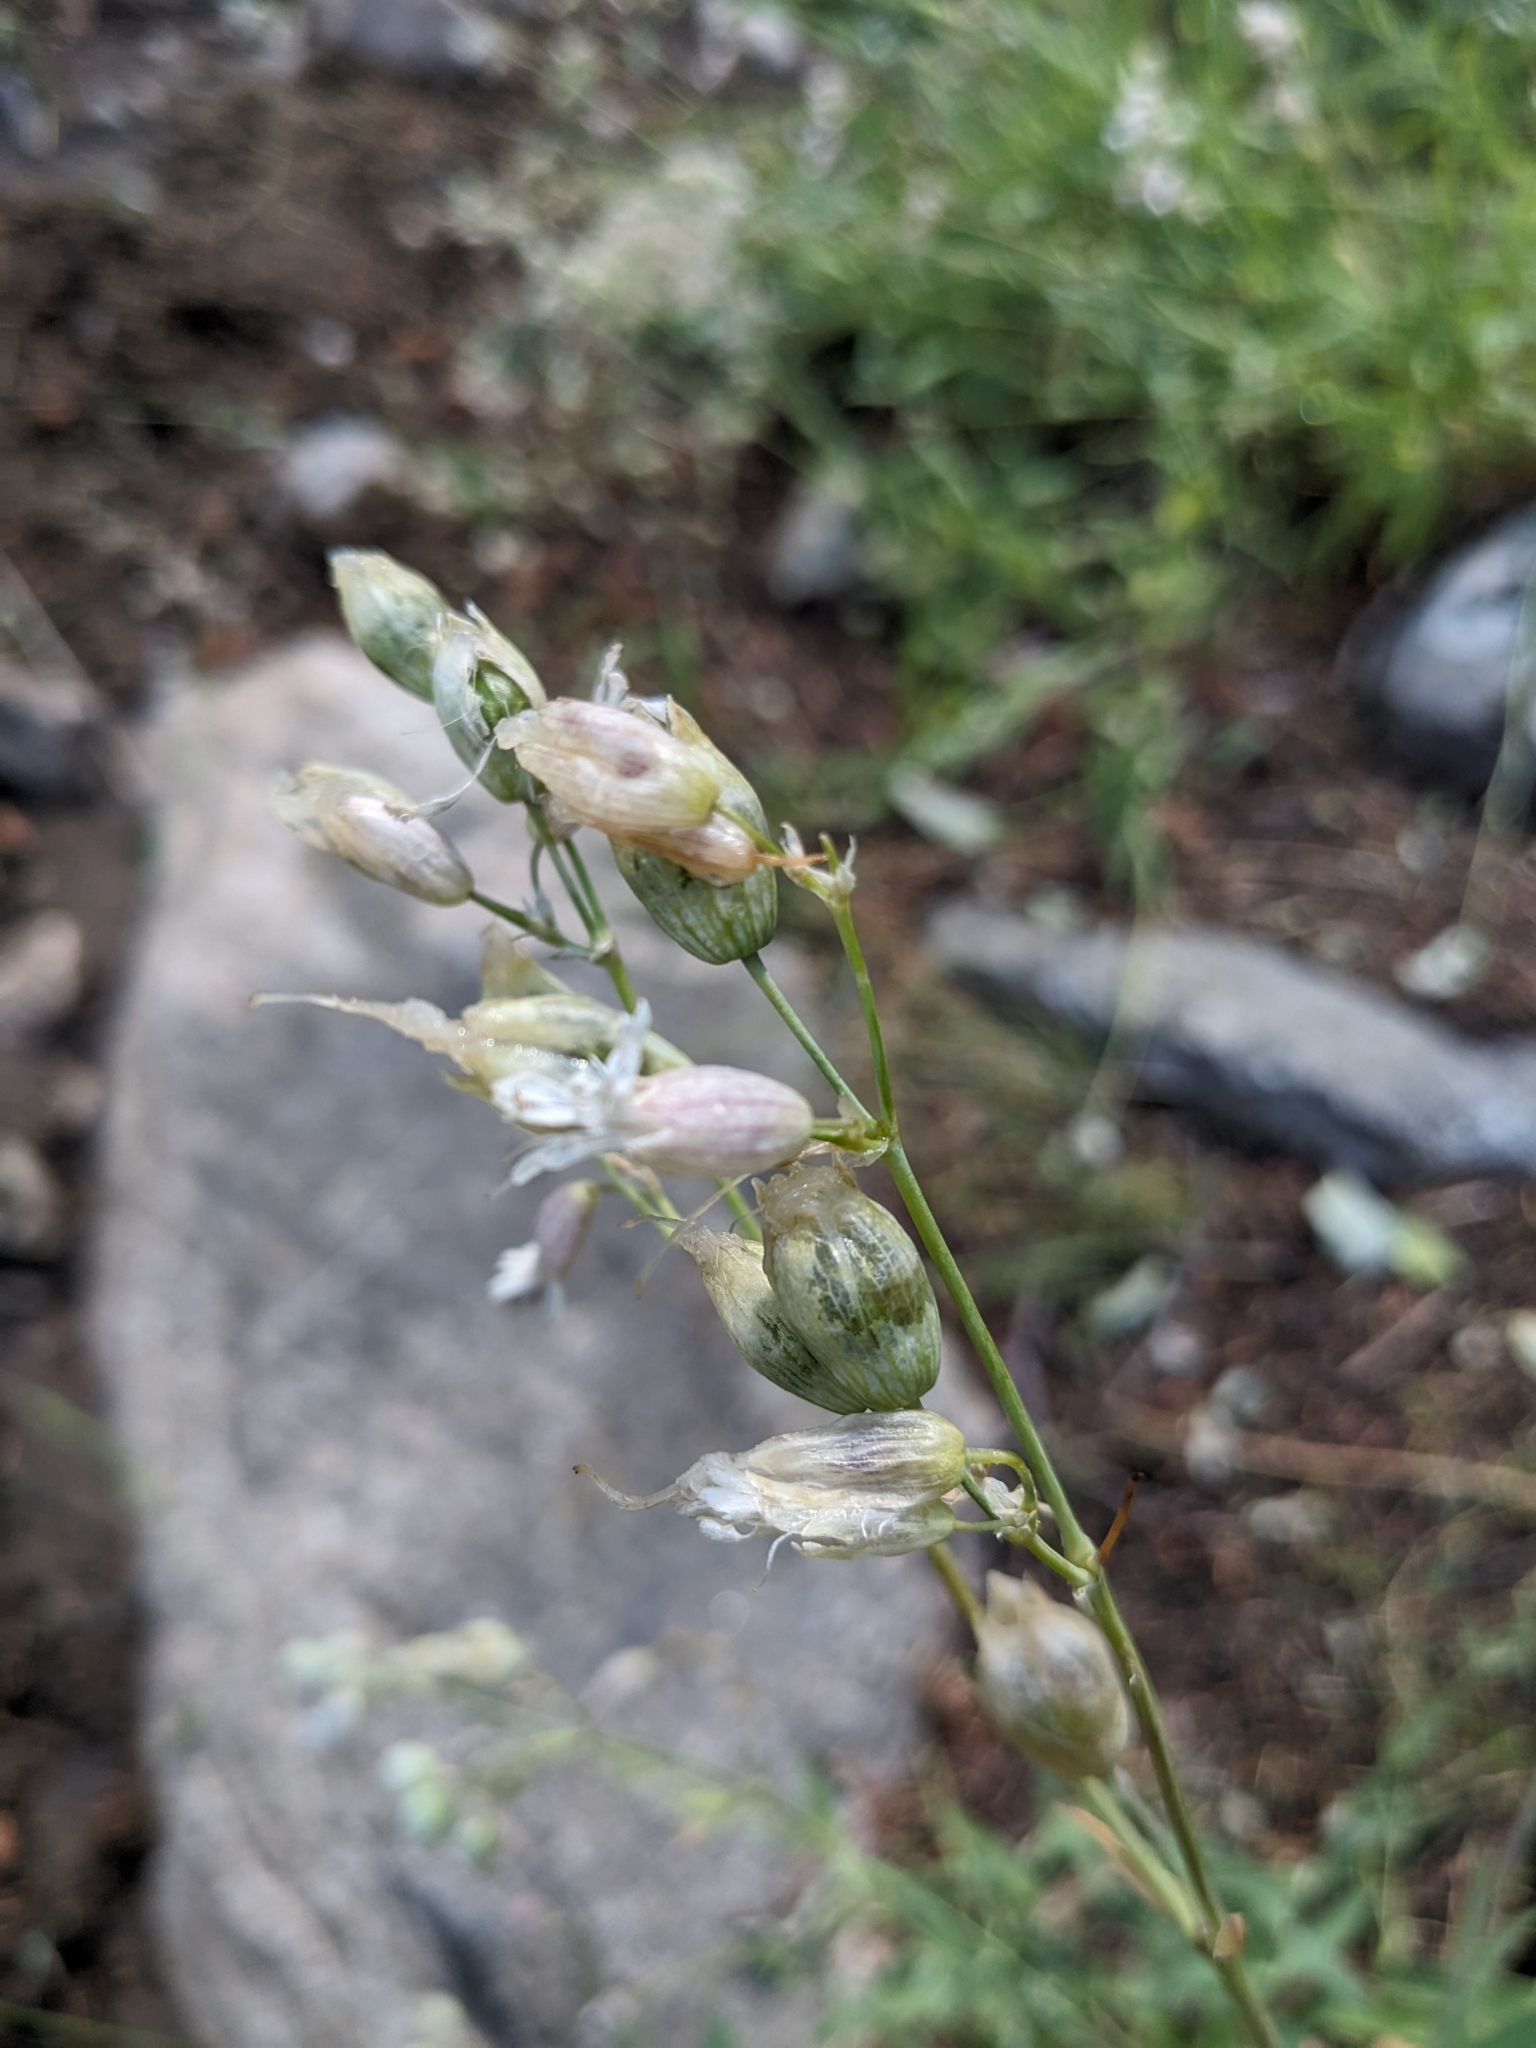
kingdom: Plantae
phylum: Tracheophyta
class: Magnoliopsida
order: Caryophyllales
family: Caryophyllaceae
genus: Silene
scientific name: Silene vulgaris
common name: Bladder campion
